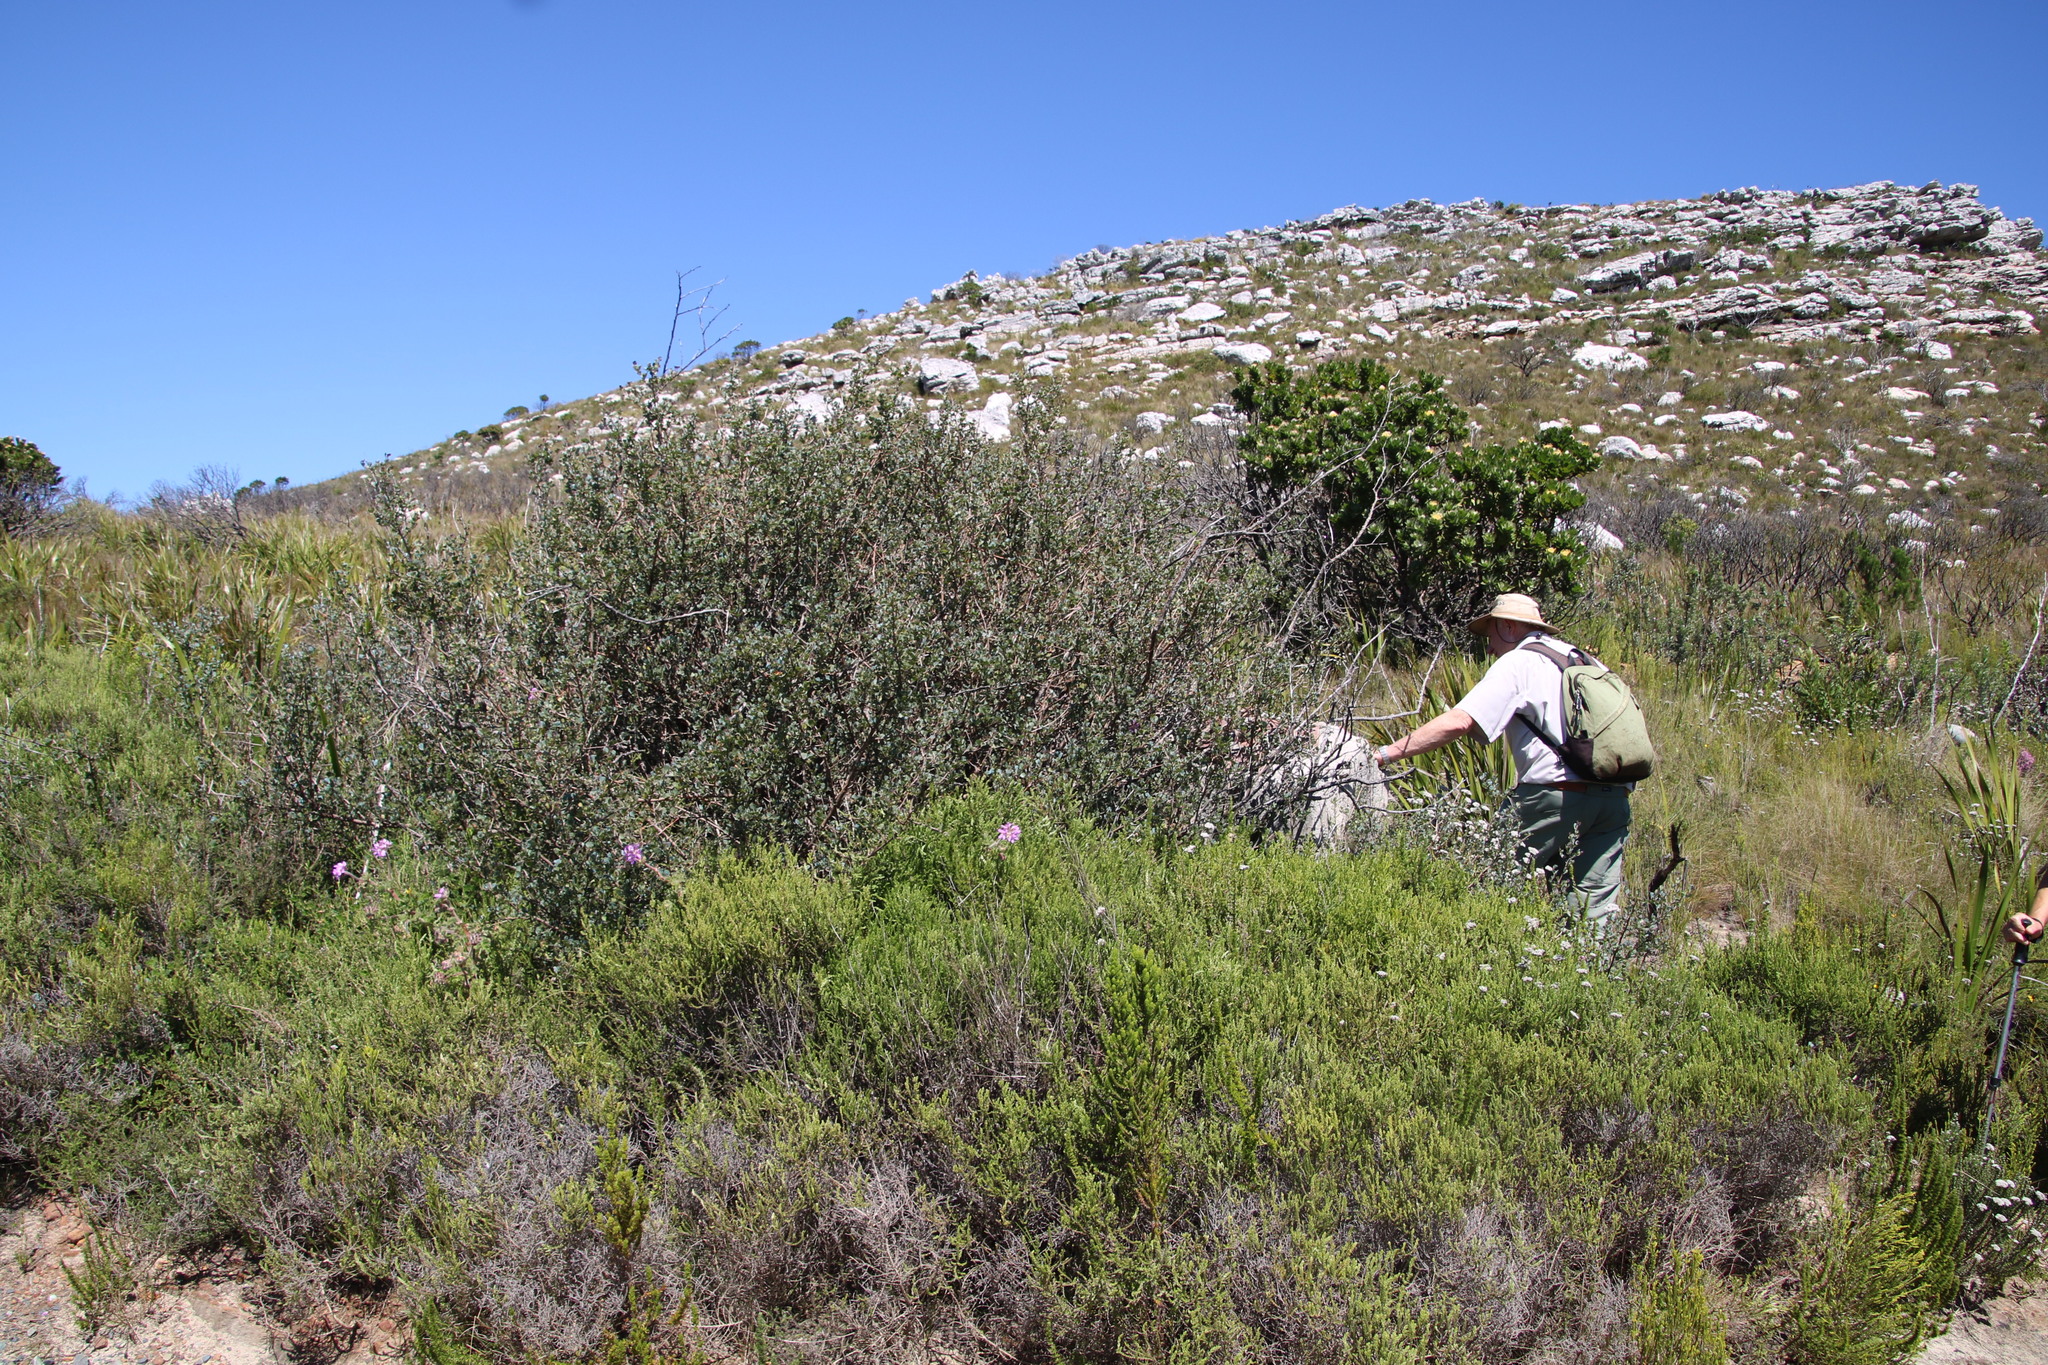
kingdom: Plantae
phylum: Tracheophyta
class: Magnoliopsida
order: Sapindales
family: Anacardiaceae
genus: Searsia
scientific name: Searsia glauca
